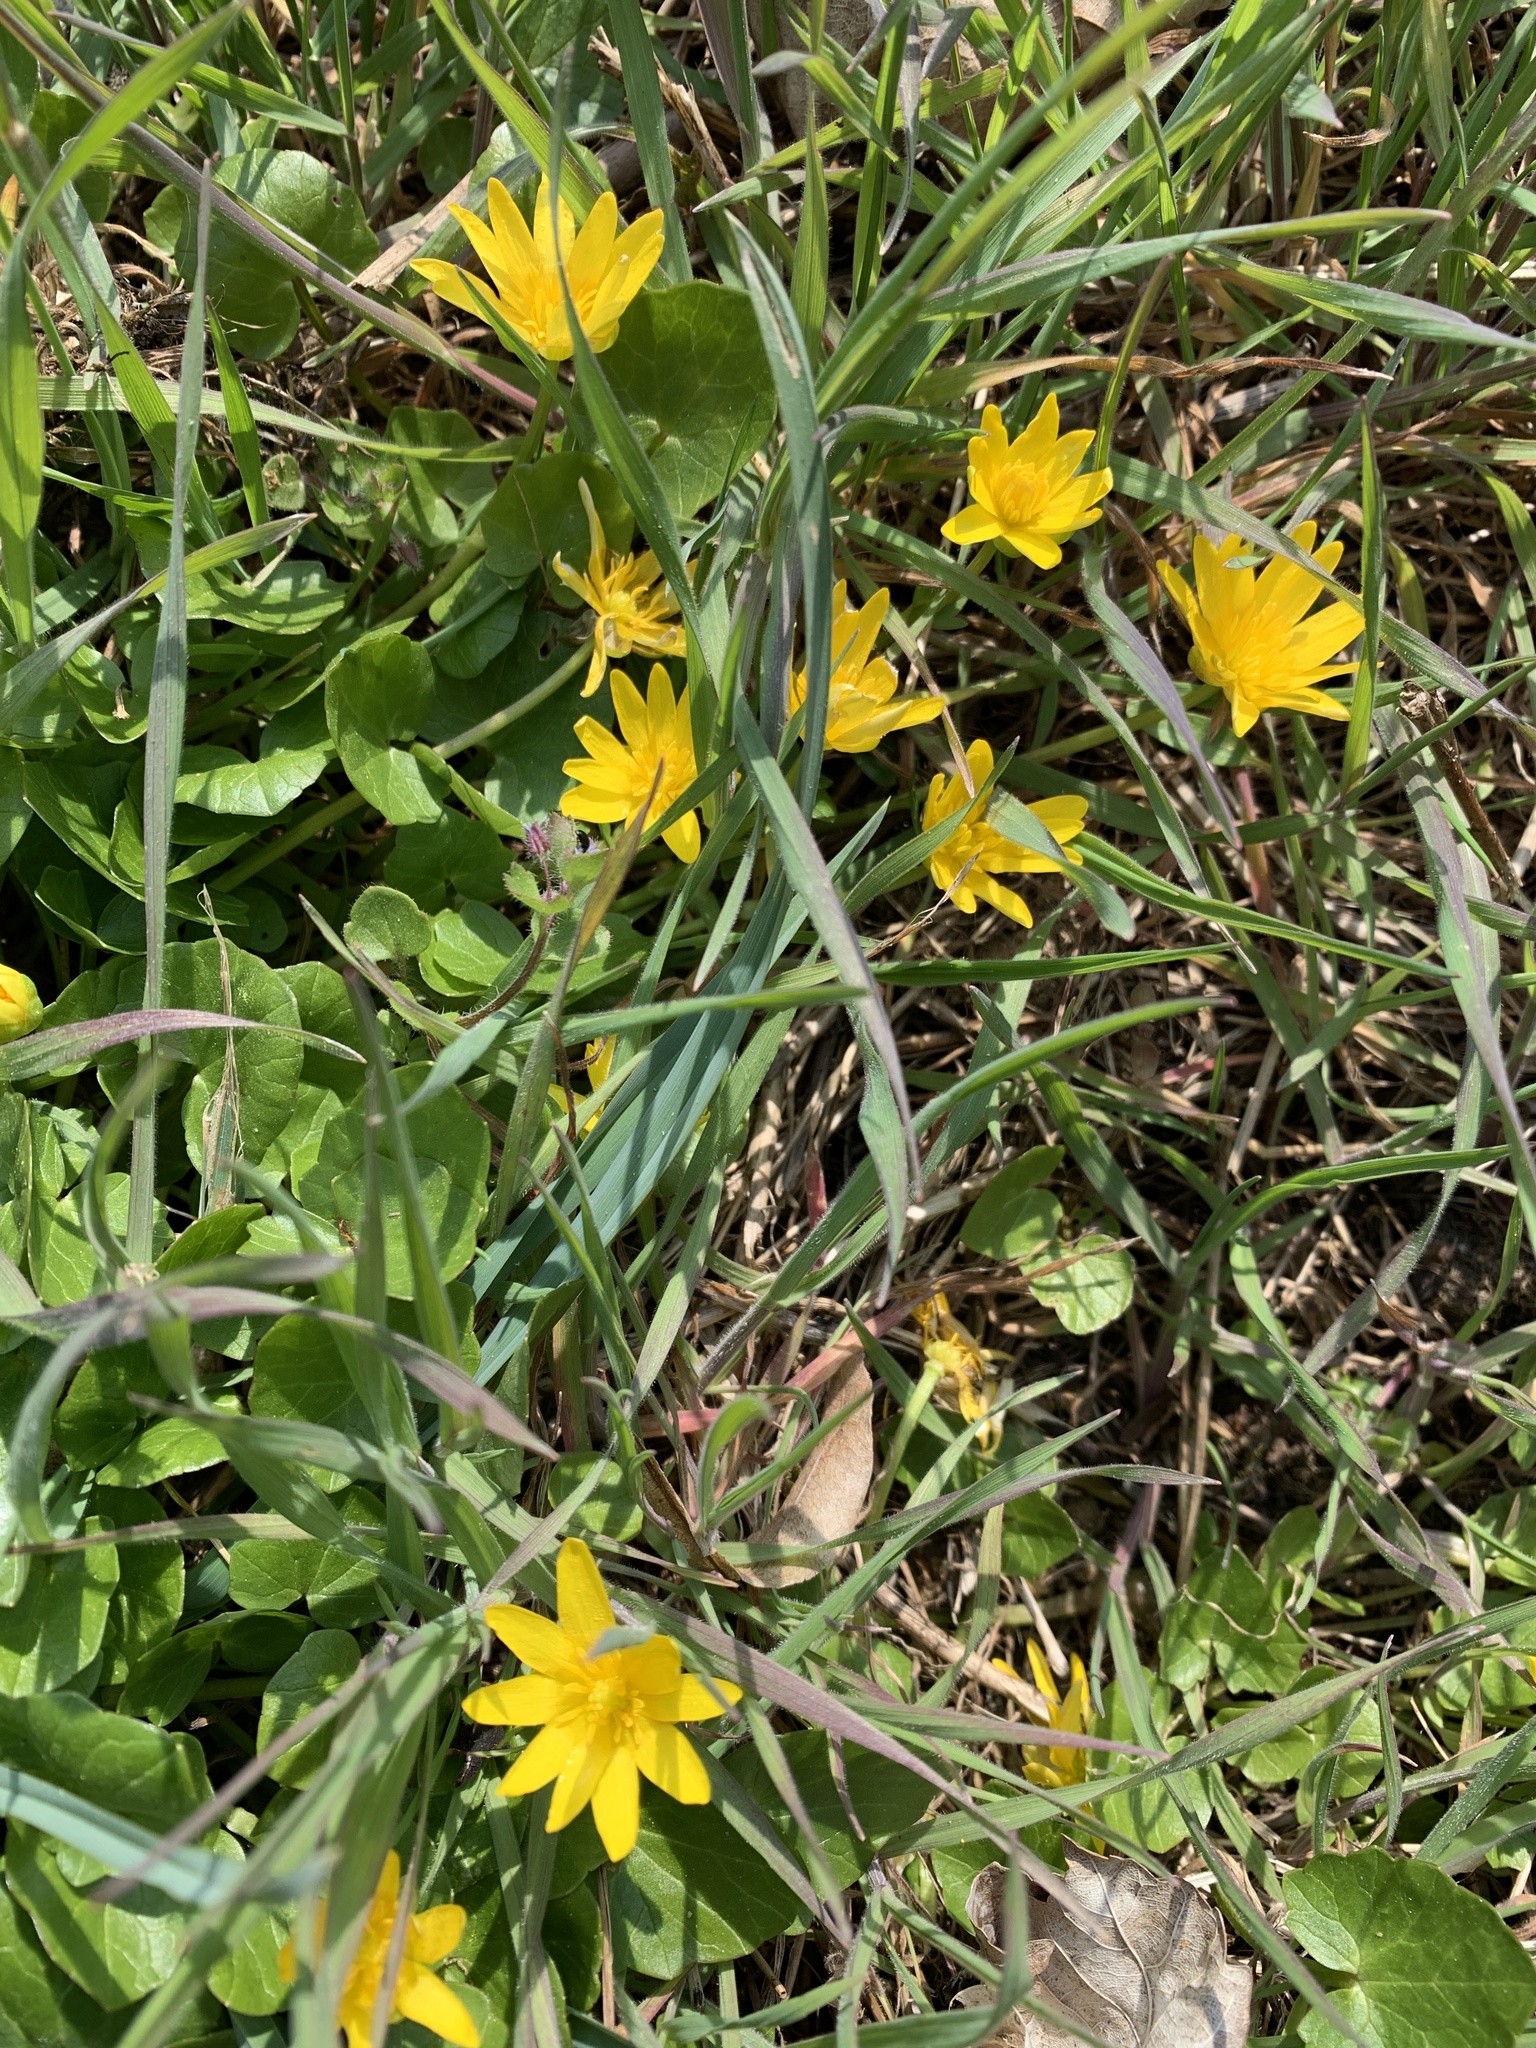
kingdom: Plantae
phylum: Tracheophyta
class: Magnoliopsida
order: Ranunculales
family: Ranunculaceae
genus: Ficaria
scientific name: Ficaria verna
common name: Lesser celandine
